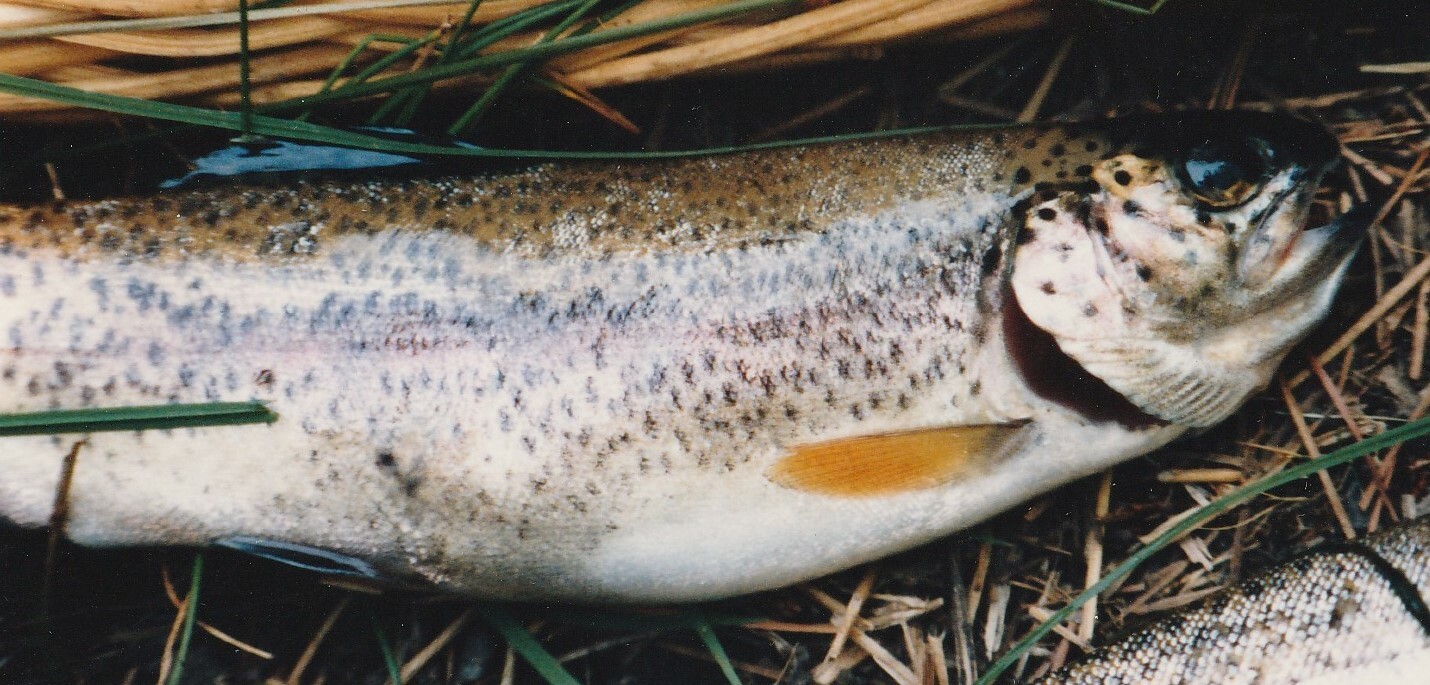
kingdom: Animalia
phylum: Chordata
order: Salmoniformes
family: Salmonidae
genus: Oncorhynchus
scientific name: Oncorhynchus mykiss
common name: Rainbow trout
